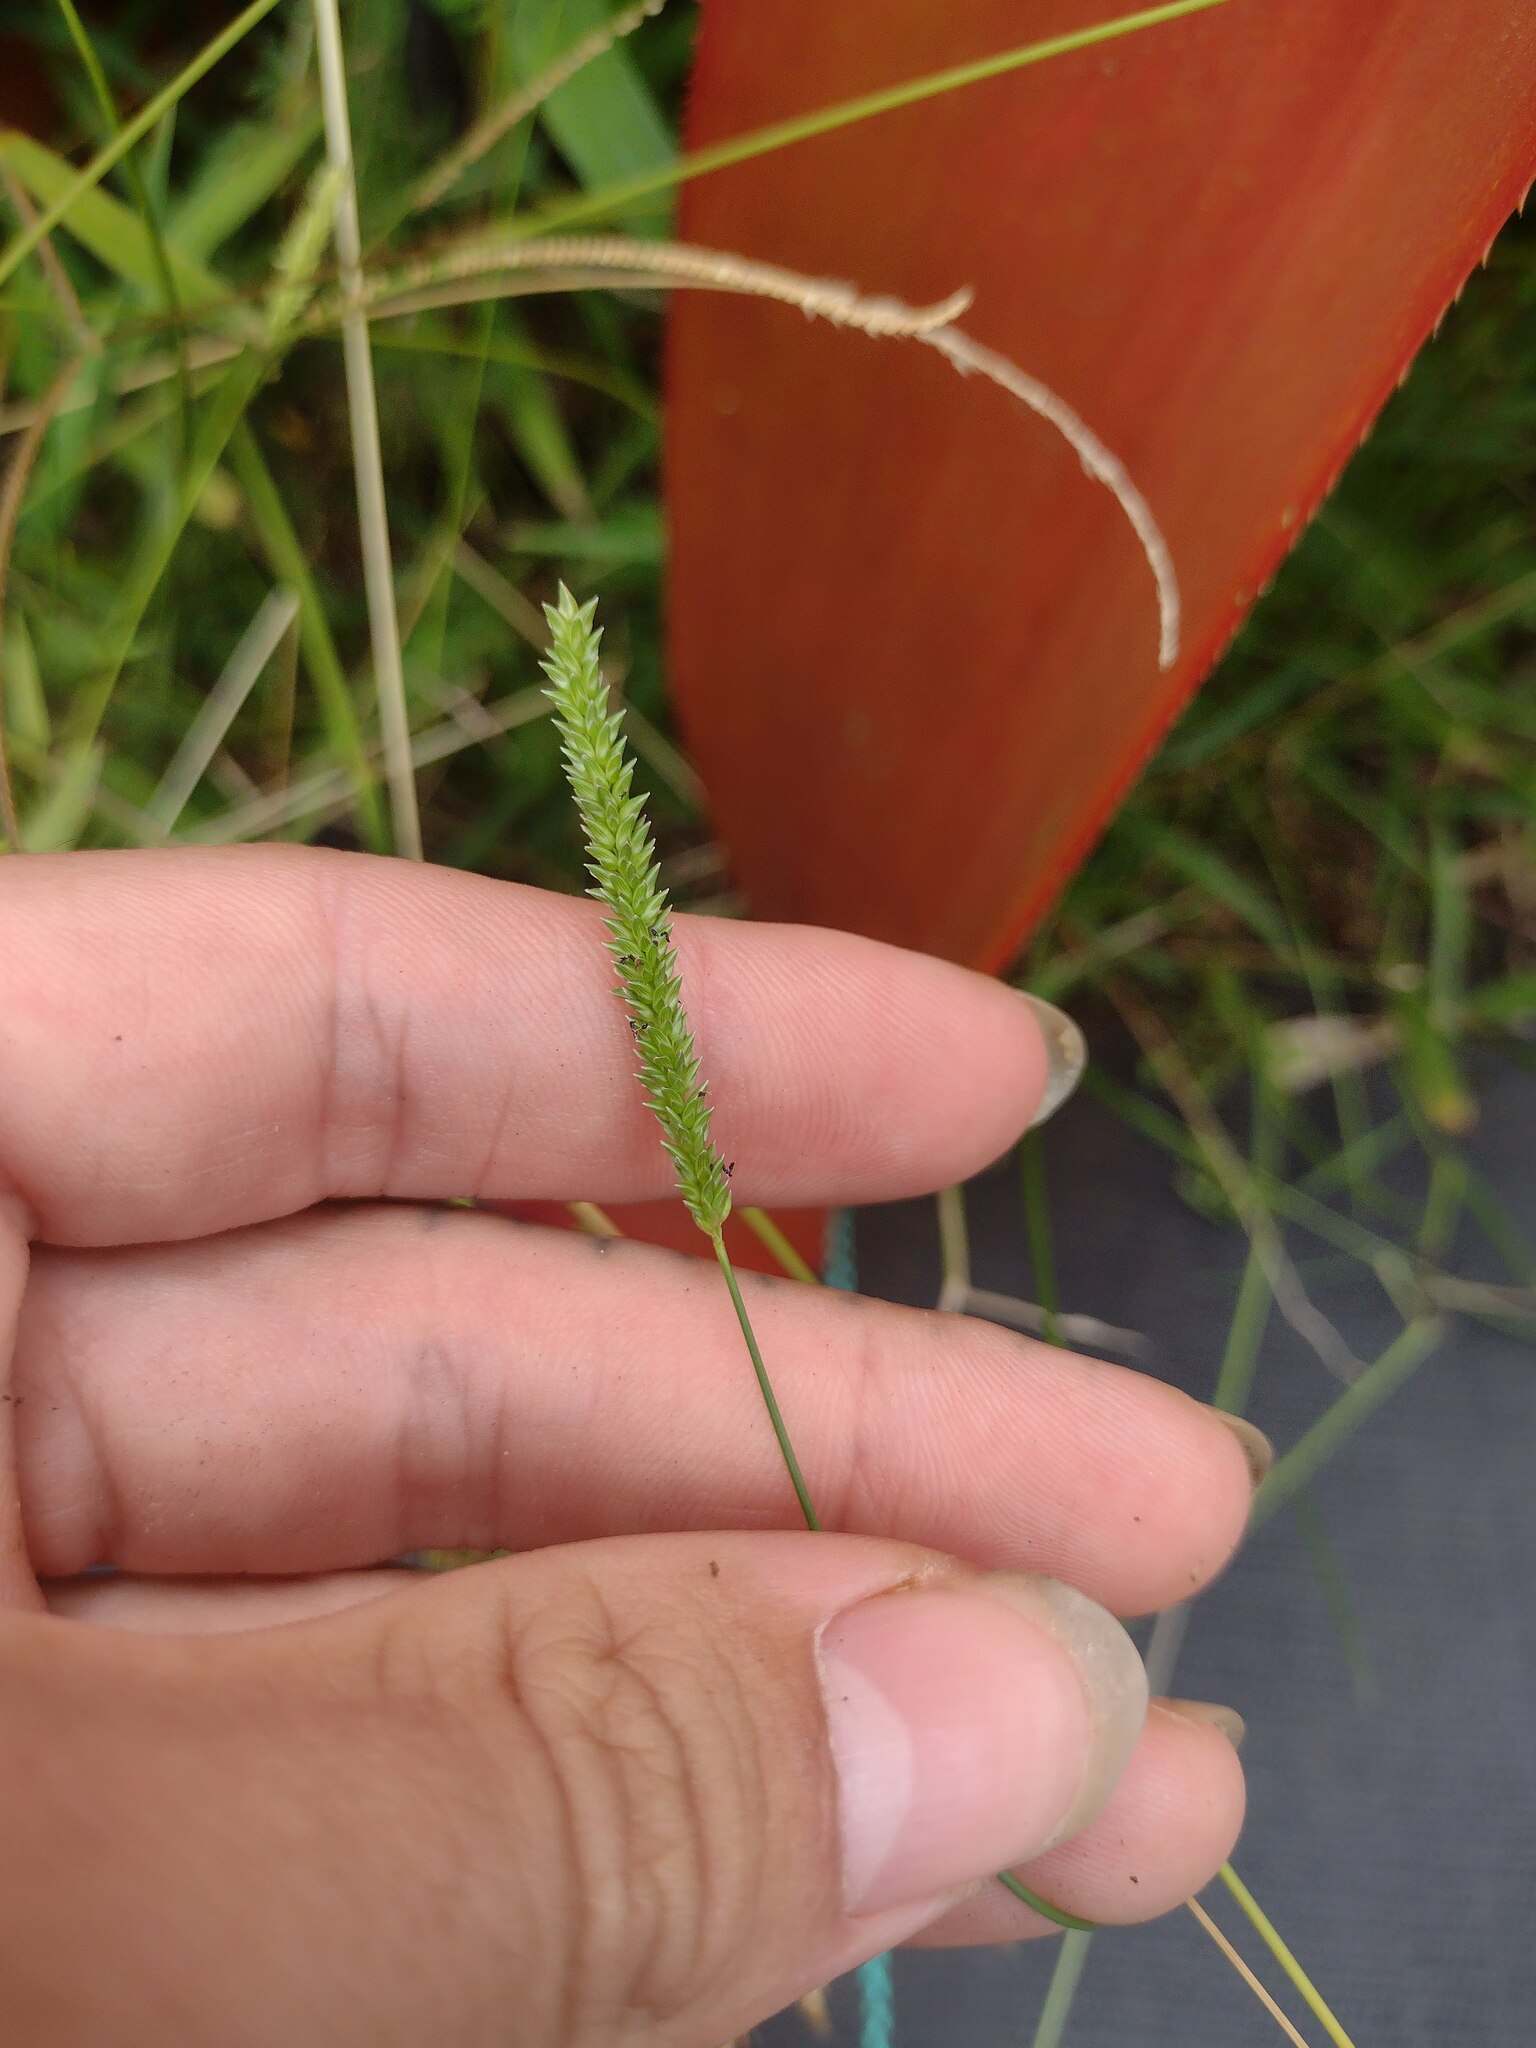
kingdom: Plantae
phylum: Tracheophyta
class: Liliopsida
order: Poales
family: Poaceae
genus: Sacciolepis
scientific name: Sacciolepis indica
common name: Glenwoodgrass
